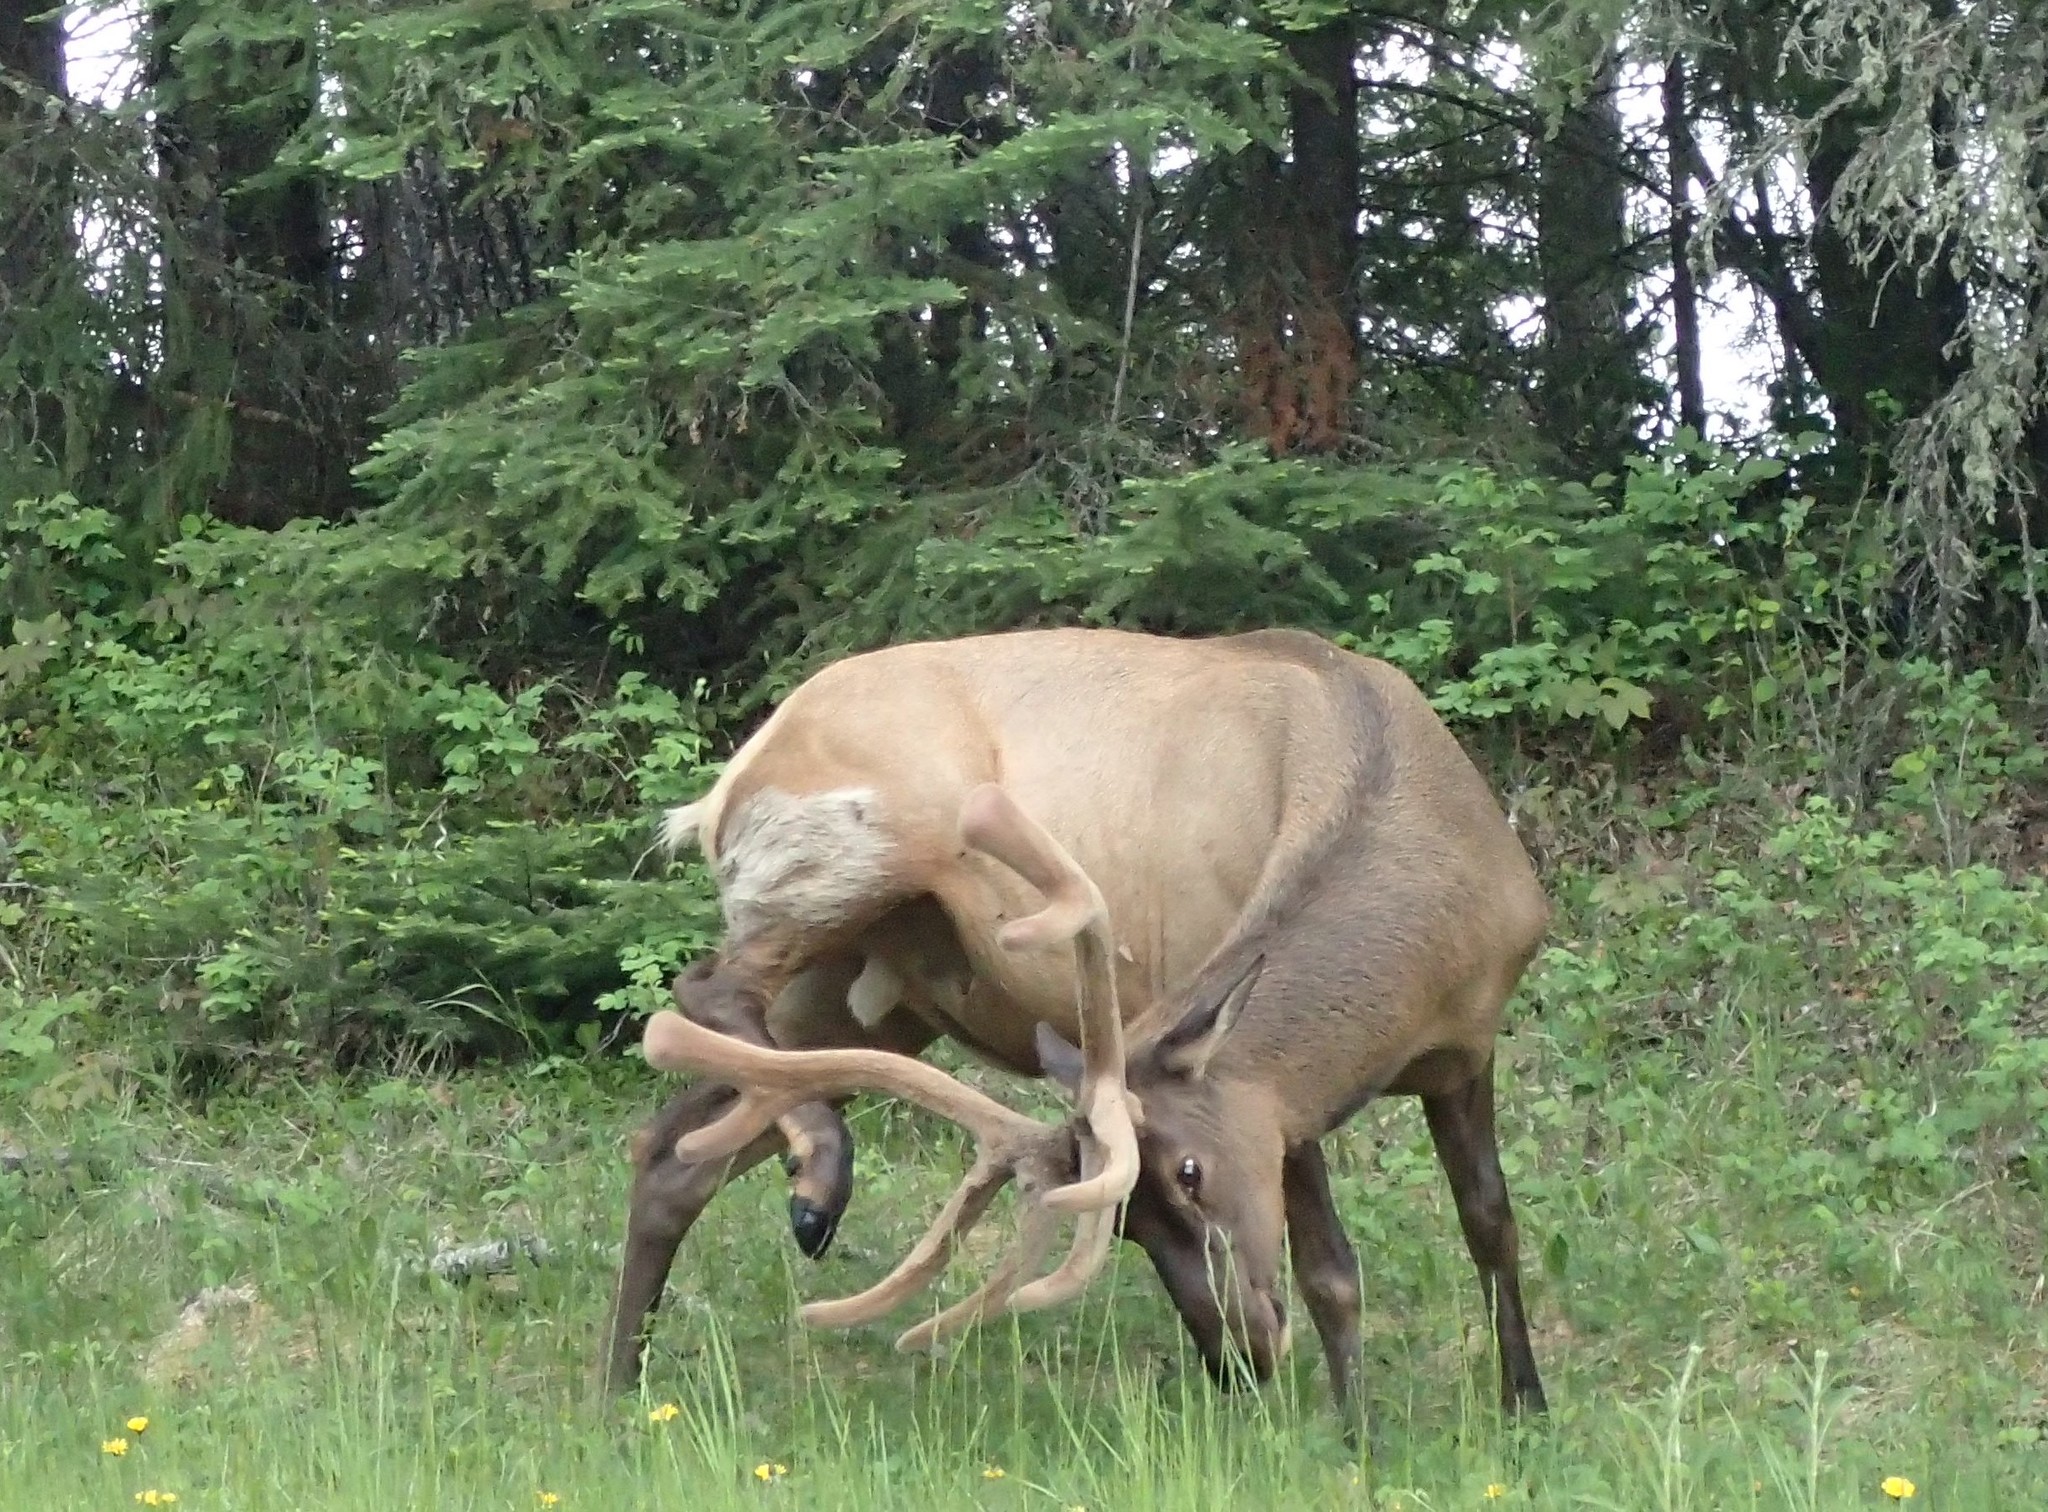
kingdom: Animalia
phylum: Chordata
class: Mammalia
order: Artiodactyla
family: Cervidae
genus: Cervus
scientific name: Cervus elaphus
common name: Red deer
